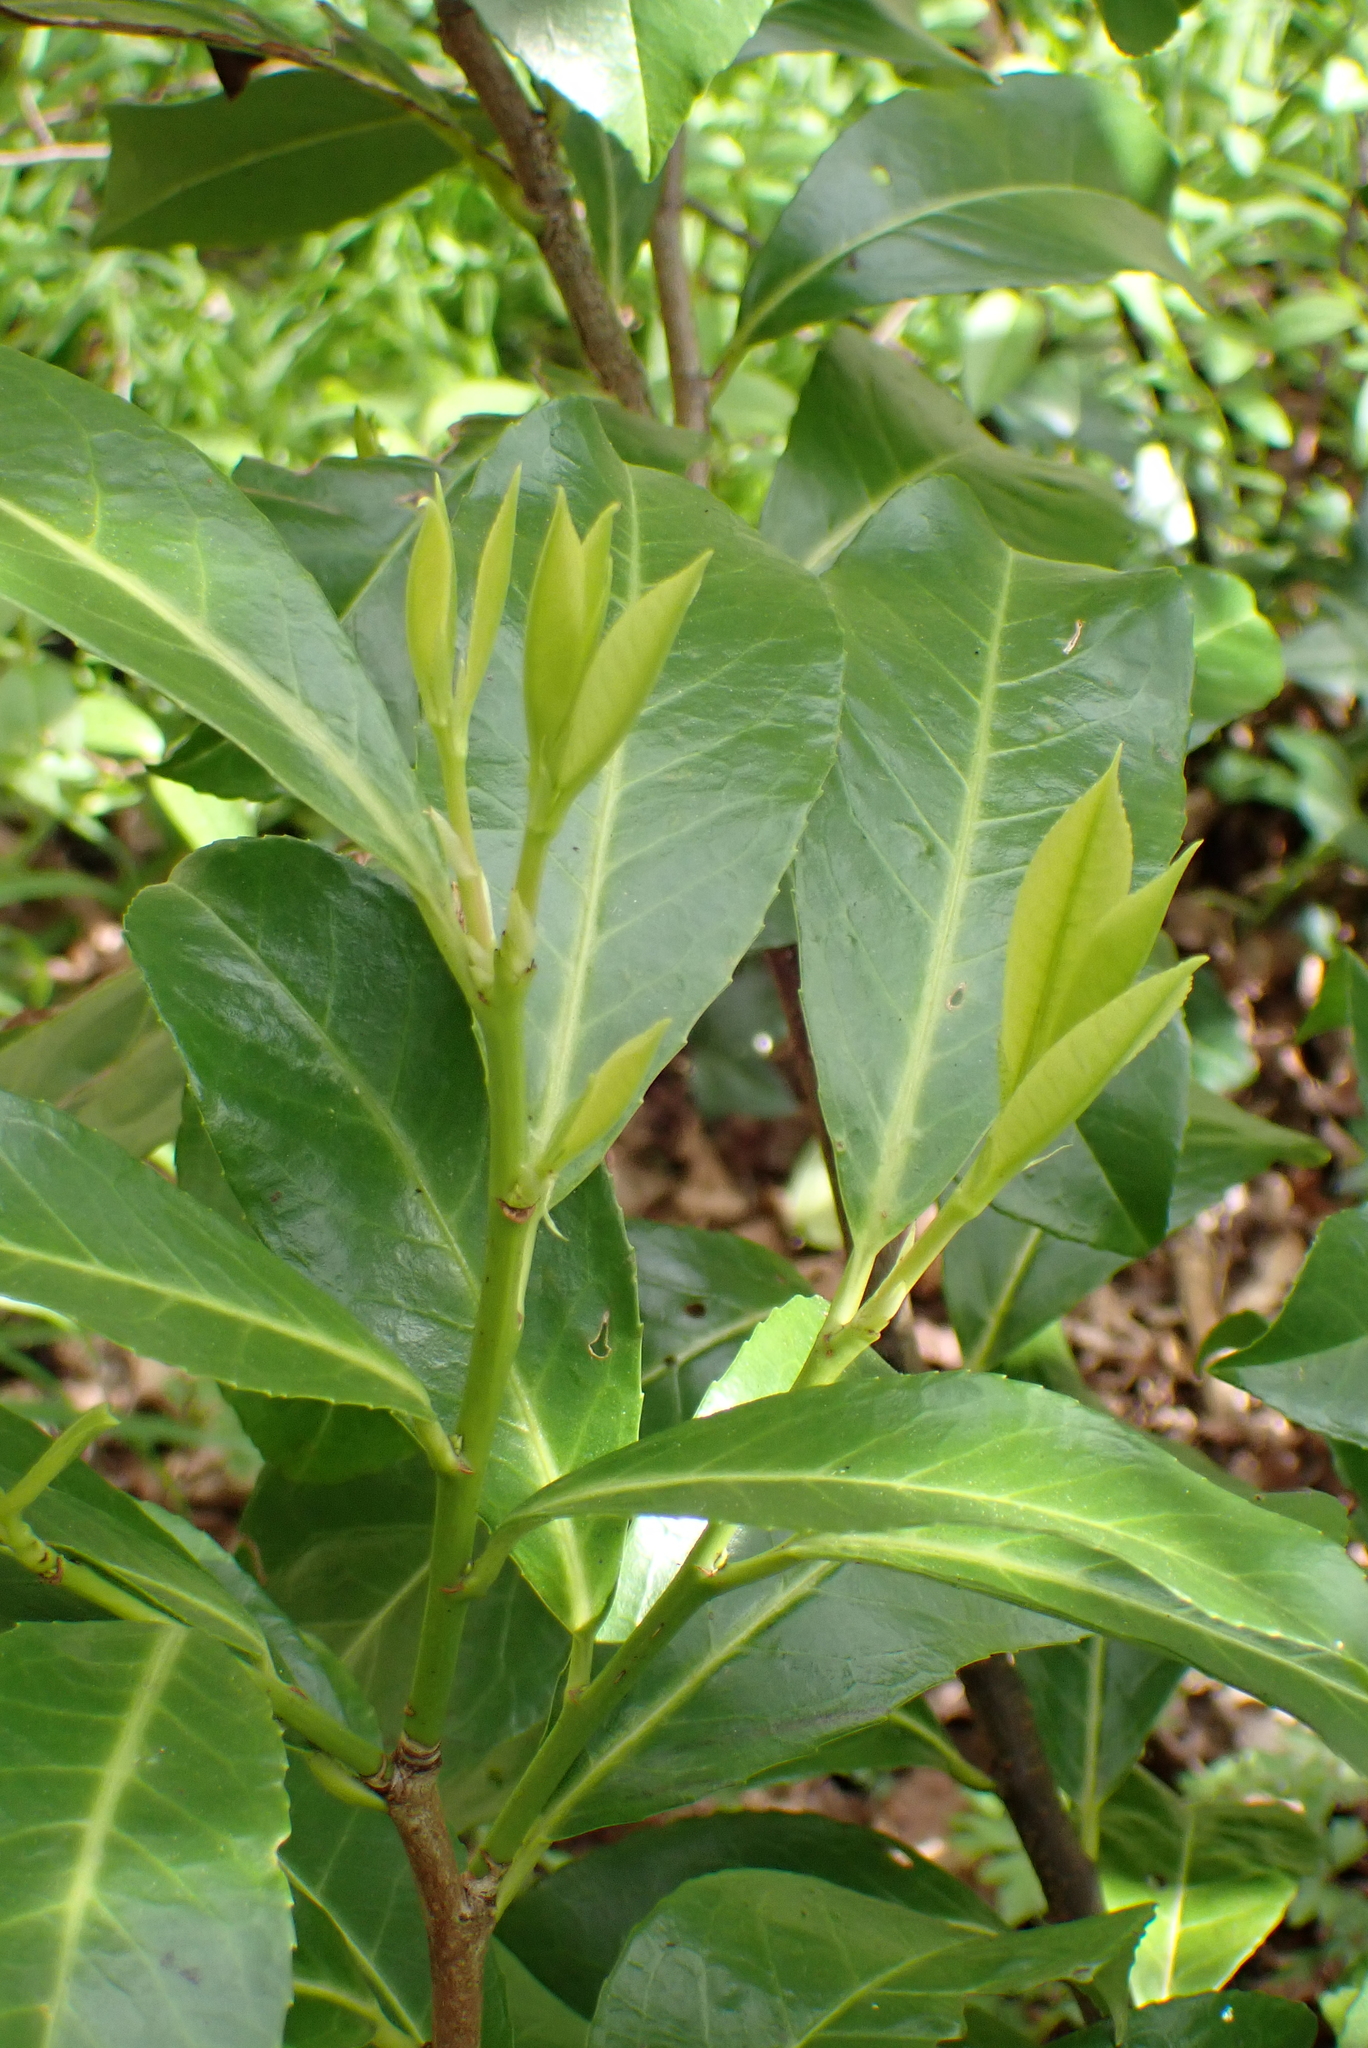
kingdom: Plantae
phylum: Tracheophyta
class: Magnoliopsida
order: Rosales
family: Rosaceae
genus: Prunus
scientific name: Prunus laurocerasus
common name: Cherry laurel
